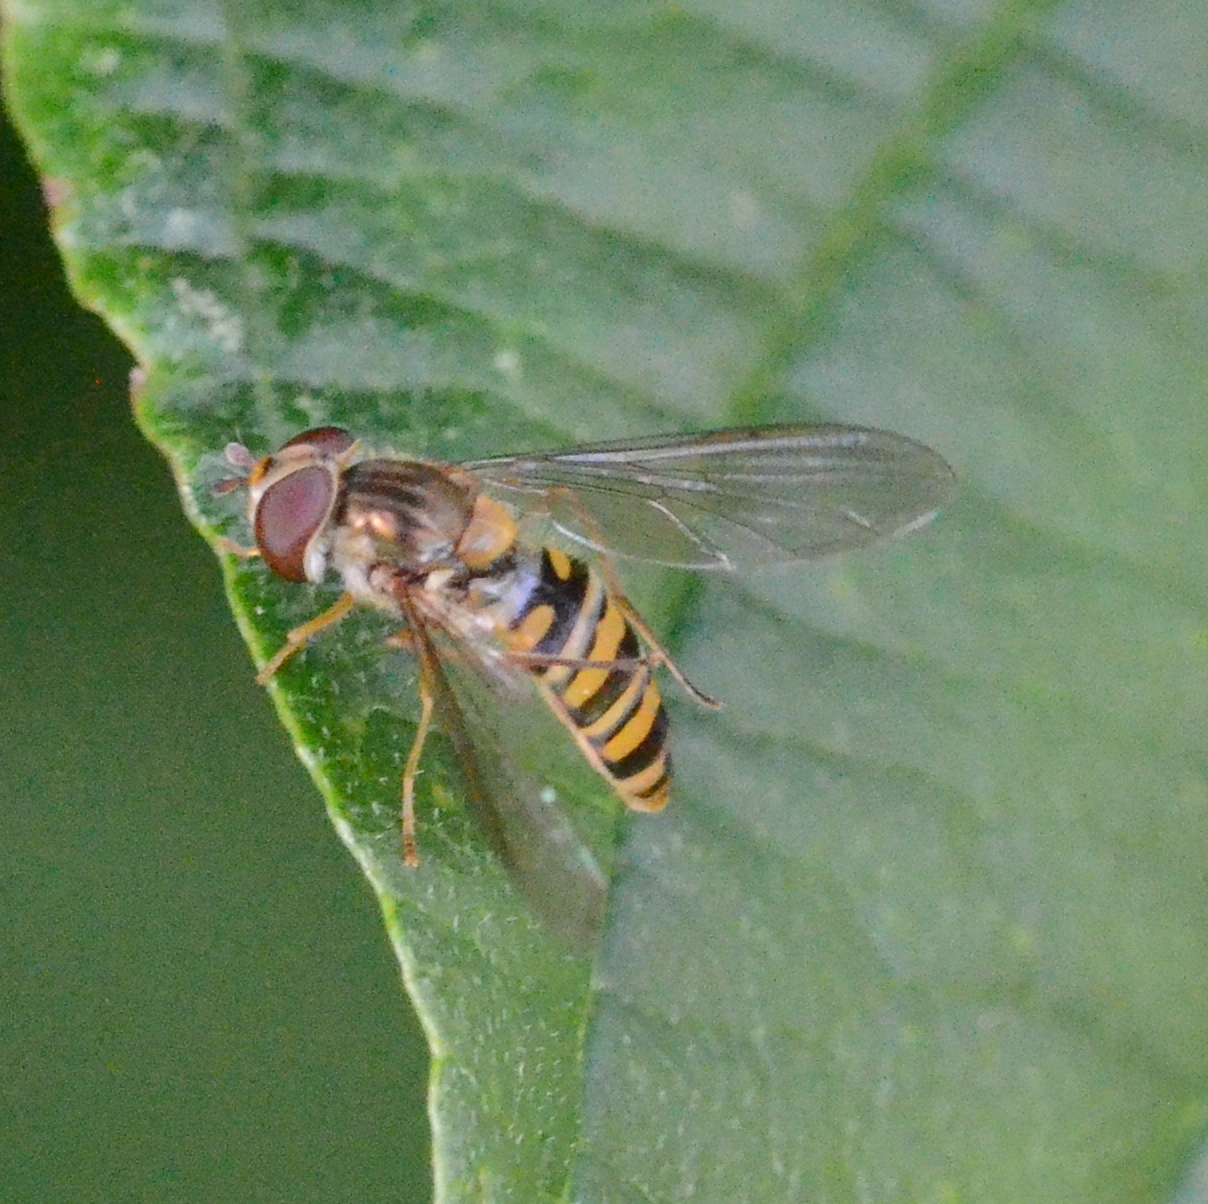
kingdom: Animalia
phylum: Arthropoda
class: Insecta
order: Diptera
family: Syrphidae
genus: Episyrphus
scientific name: Episyrphus balteatus
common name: Marmalade hoverfly
